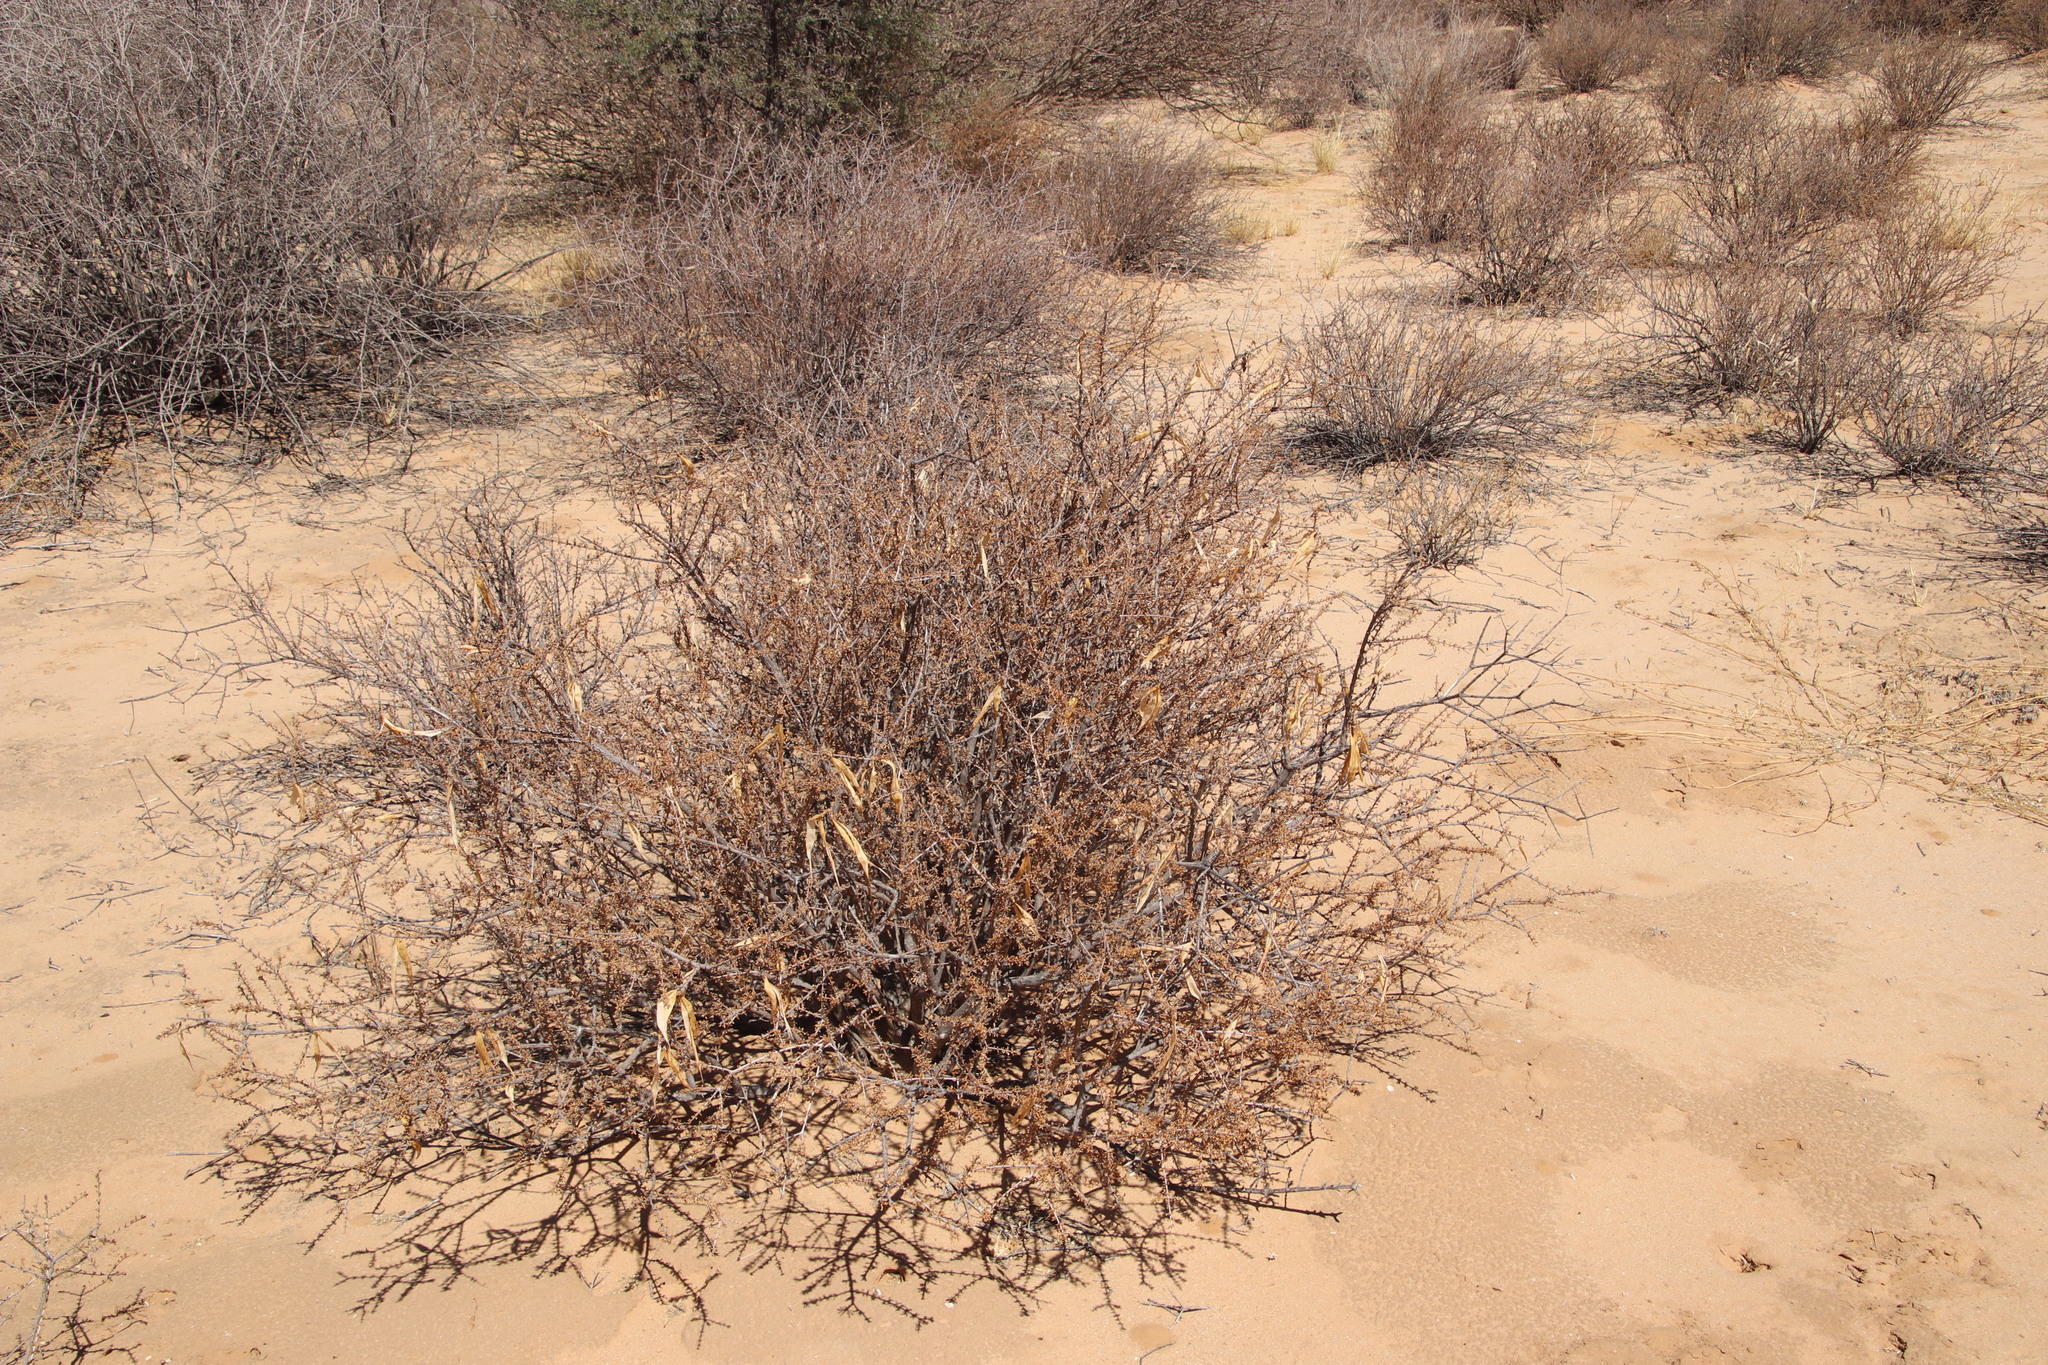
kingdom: Plantae
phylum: Tracheophyta
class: Magnoliopsida
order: Lamiales
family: Bignoniaceae
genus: Rhigozum
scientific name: Rhigozum trichotomum
